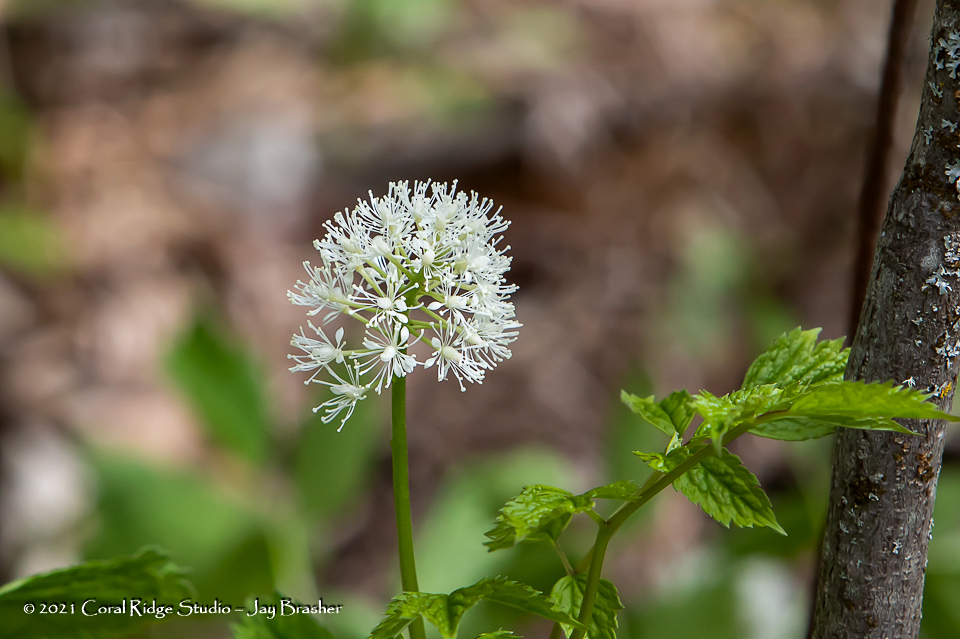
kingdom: Plantae
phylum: Tracheophyta
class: Magnoliopsida
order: Ranunculales
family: Ranunculaceae
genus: Actaea
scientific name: Actaea rubra
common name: Red baneberry
